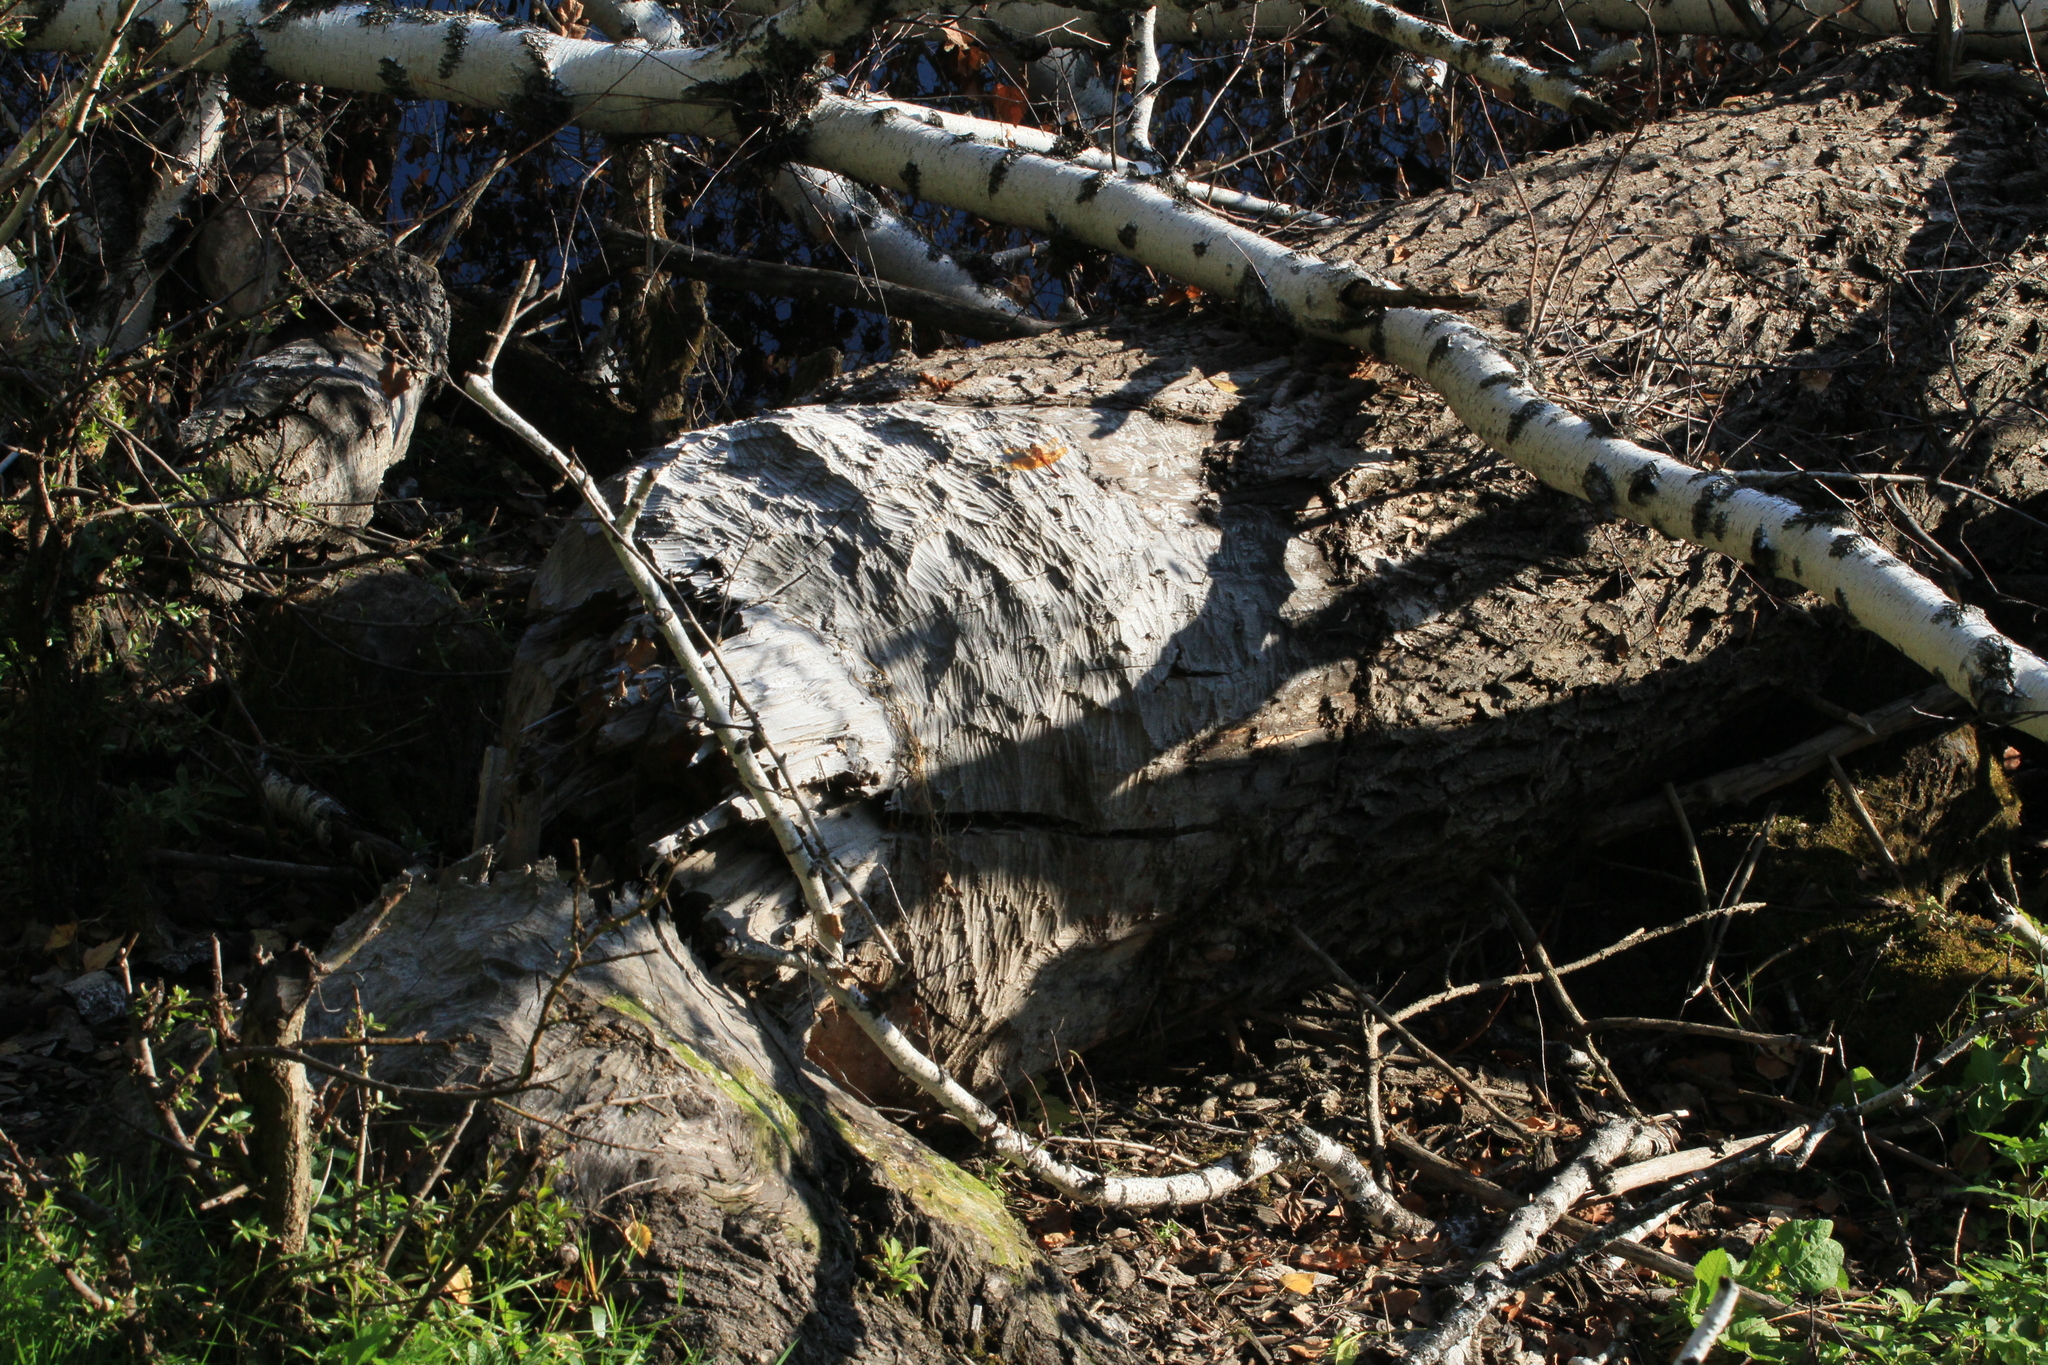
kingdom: Animalia
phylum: Arthropoda
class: Insecta
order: Odonata
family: Libellulidae
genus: Sympetrum
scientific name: Sympetrum croceolum
